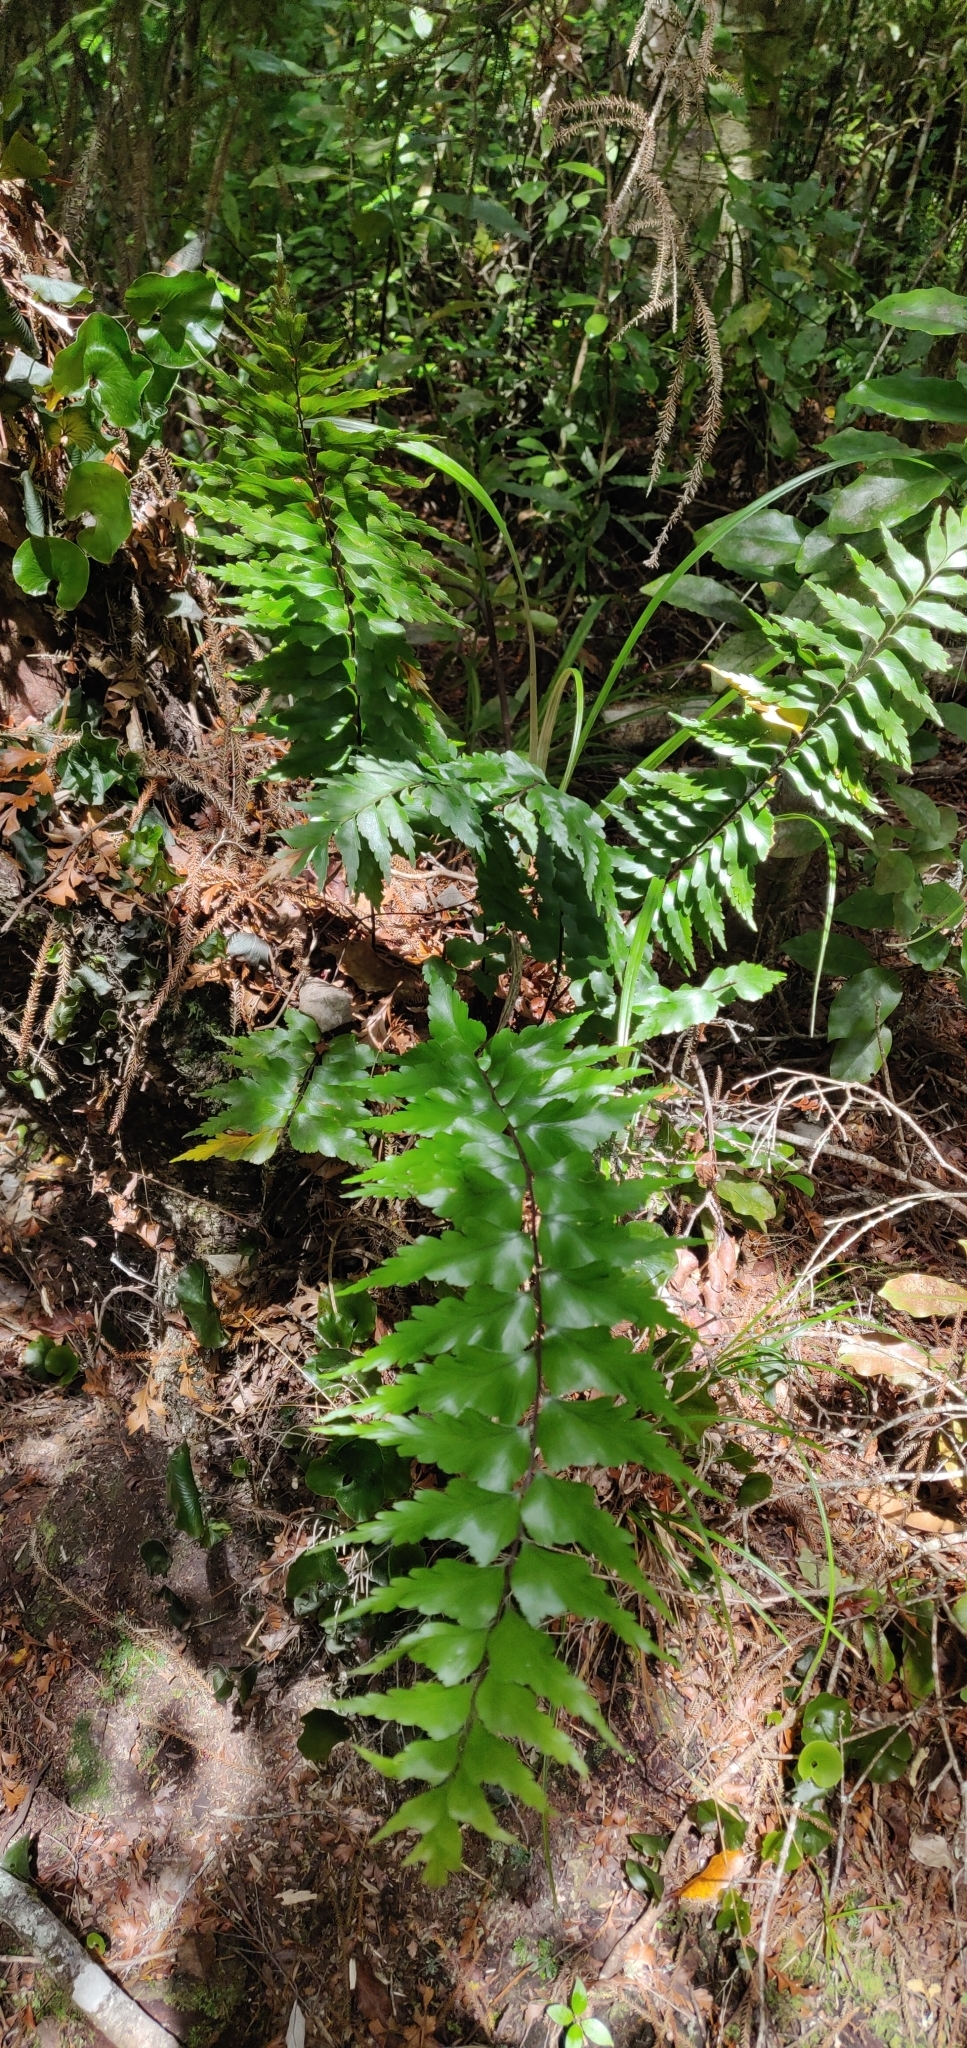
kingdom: Plantae
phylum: Tracheophyta
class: Polypodiopsida
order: Polypodiales
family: Aspleniaceae
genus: Asplenium
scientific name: Asplenium polyodon
